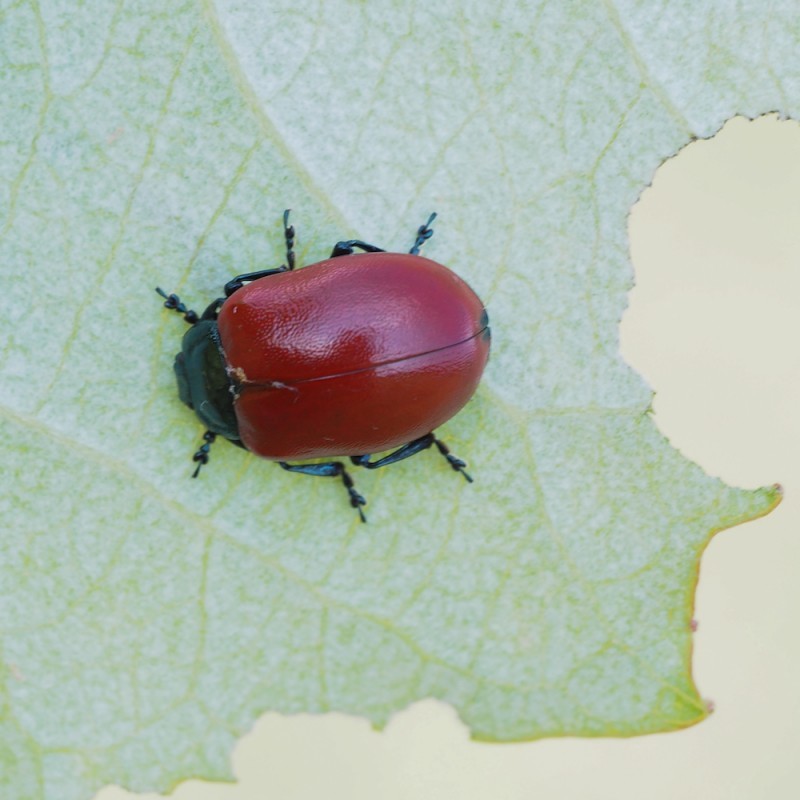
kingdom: Animalia
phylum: Arthropoda
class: Insecta
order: Coleoptera
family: Chrysomelidae
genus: Chrysomela
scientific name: Chrysomela populi
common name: Red poplar leaf beetle
